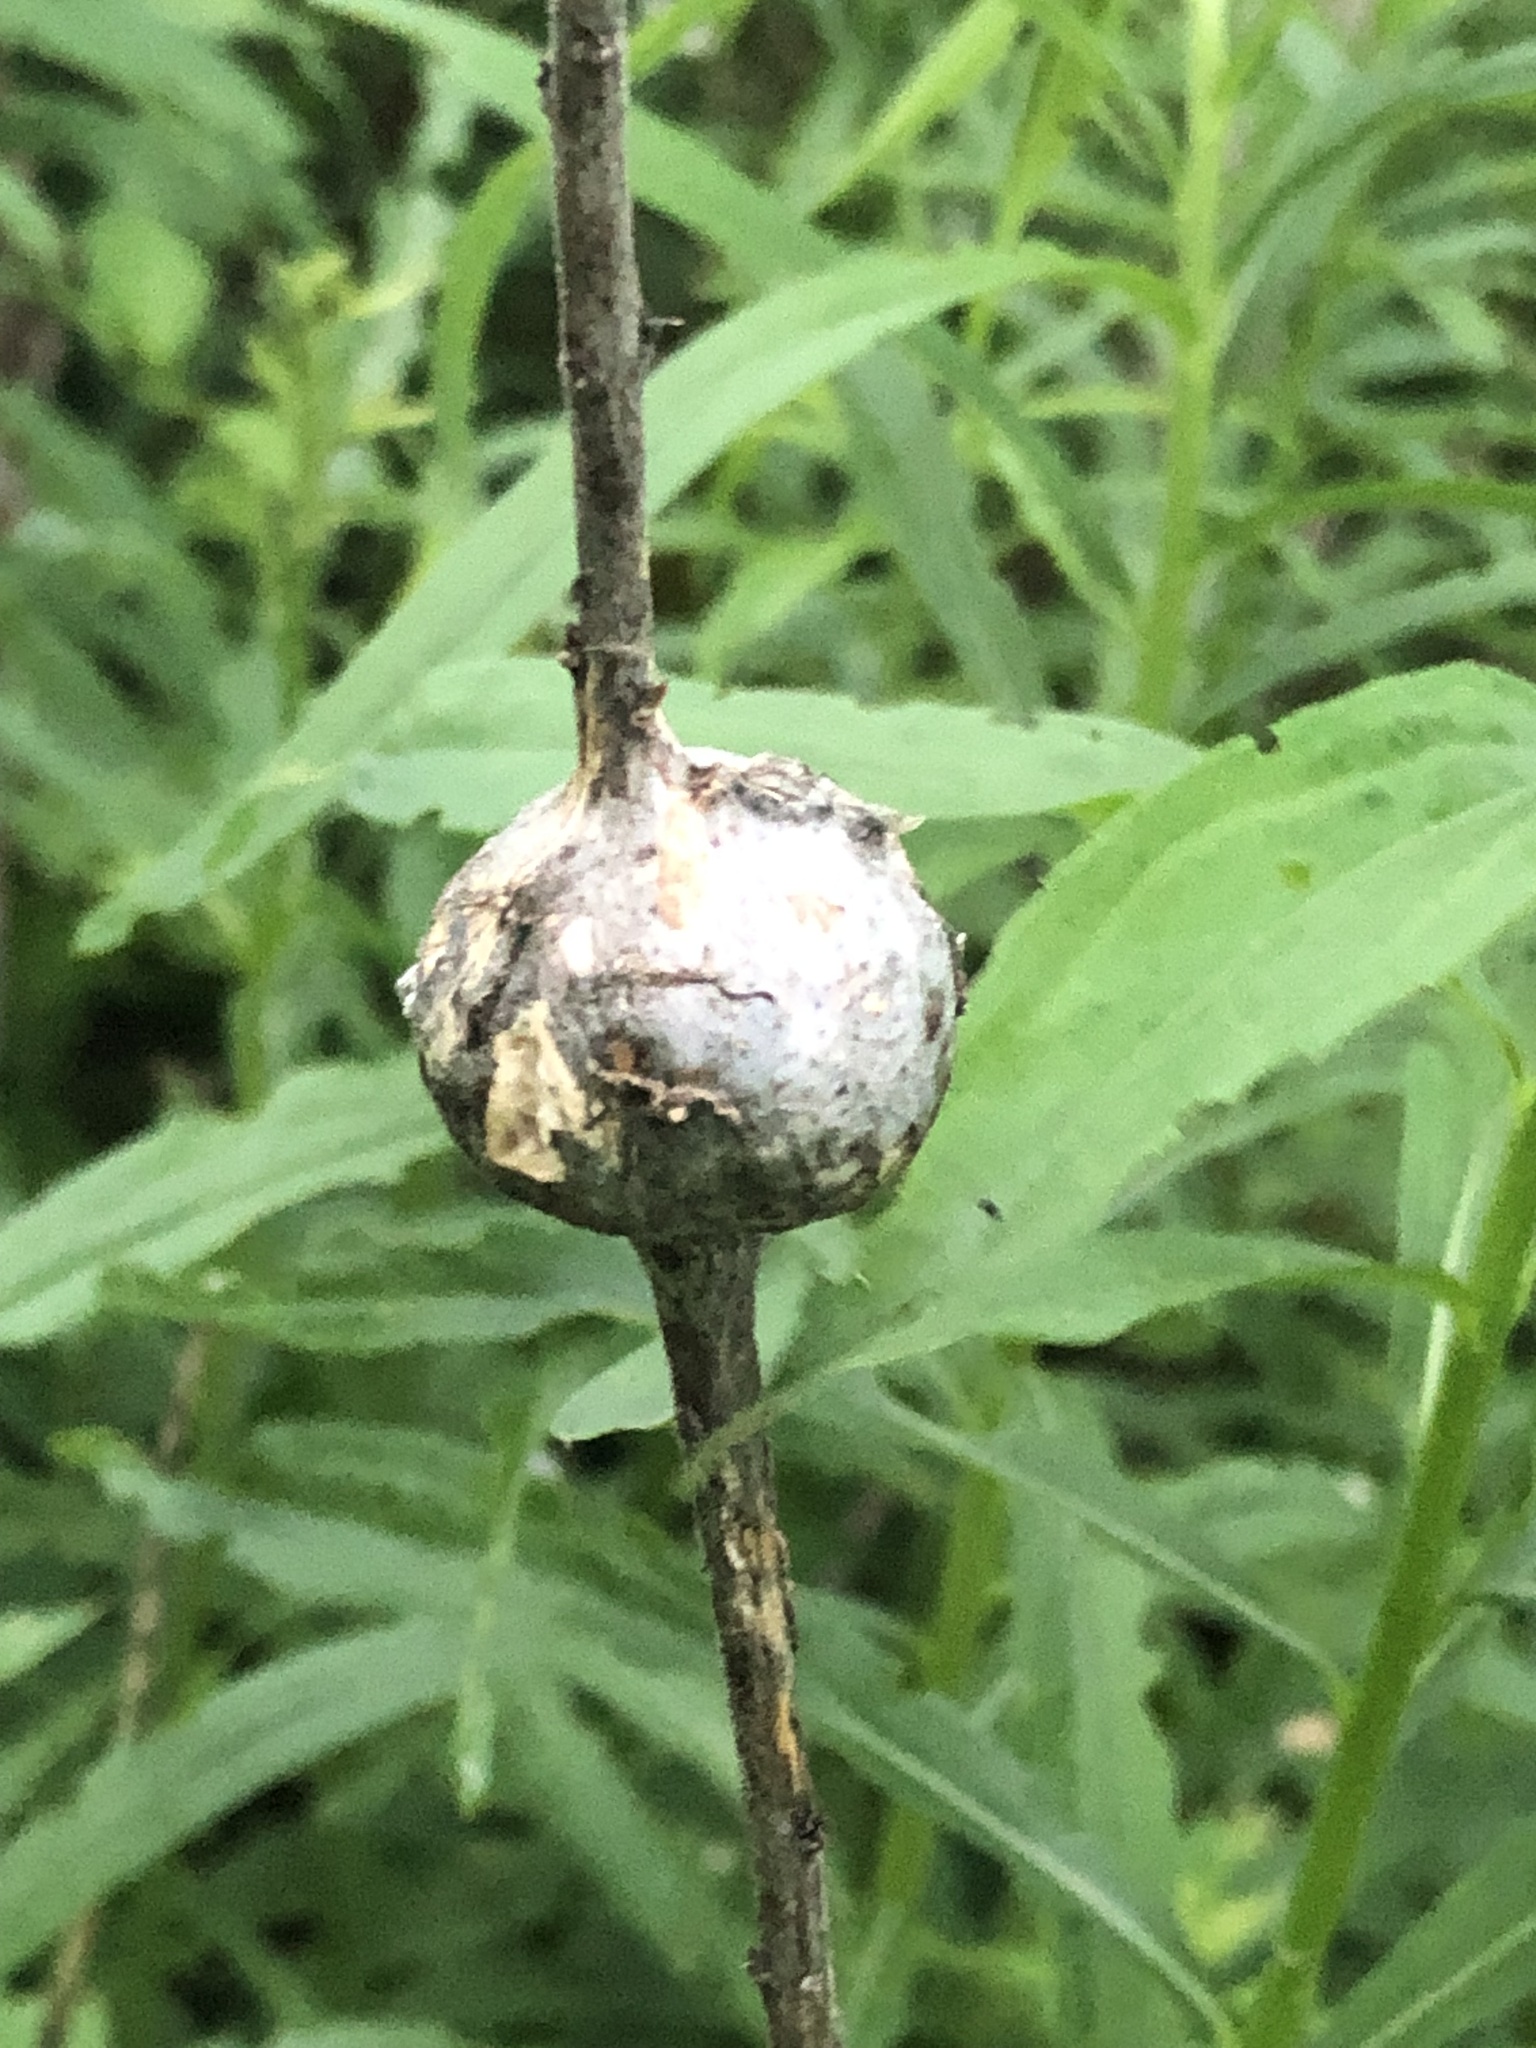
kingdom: Animalia
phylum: Arthropoda
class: Insecta
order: Diptera
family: Tephritidae
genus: Eurosta
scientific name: Eurosta solidaginis
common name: Goldenrod gall fly
